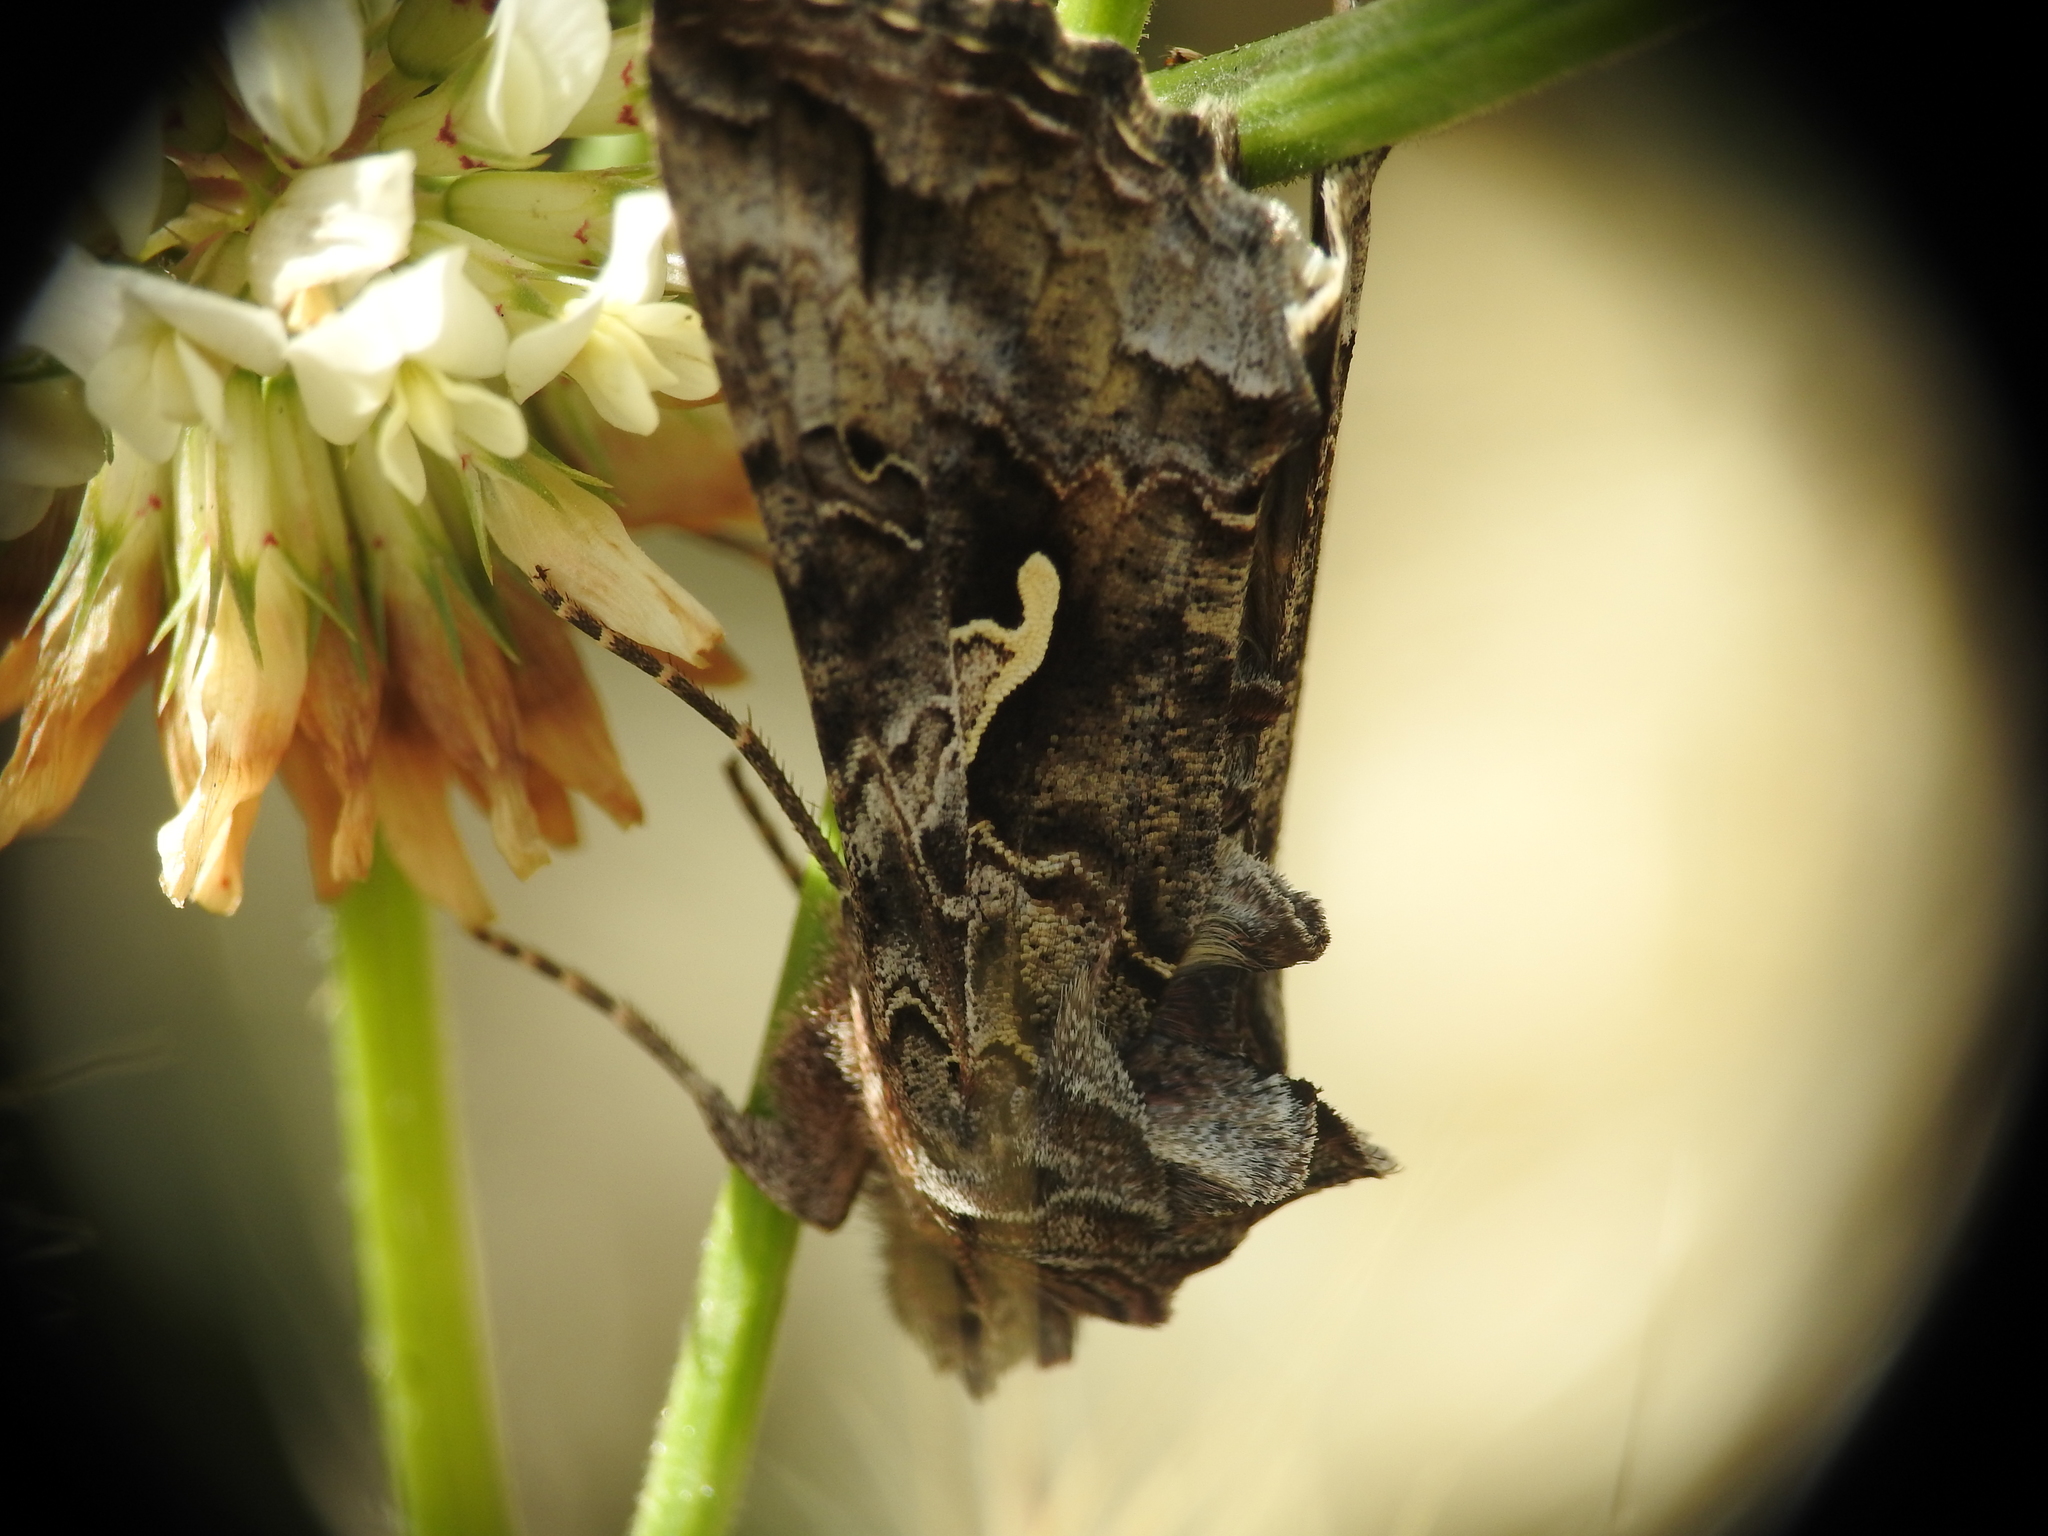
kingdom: Animalia
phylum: Arthropoda
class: Insecta
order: Lepidoptera
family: Noctuidae
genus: Autographa
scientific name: Autographa californica
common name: Alfalfa looper
